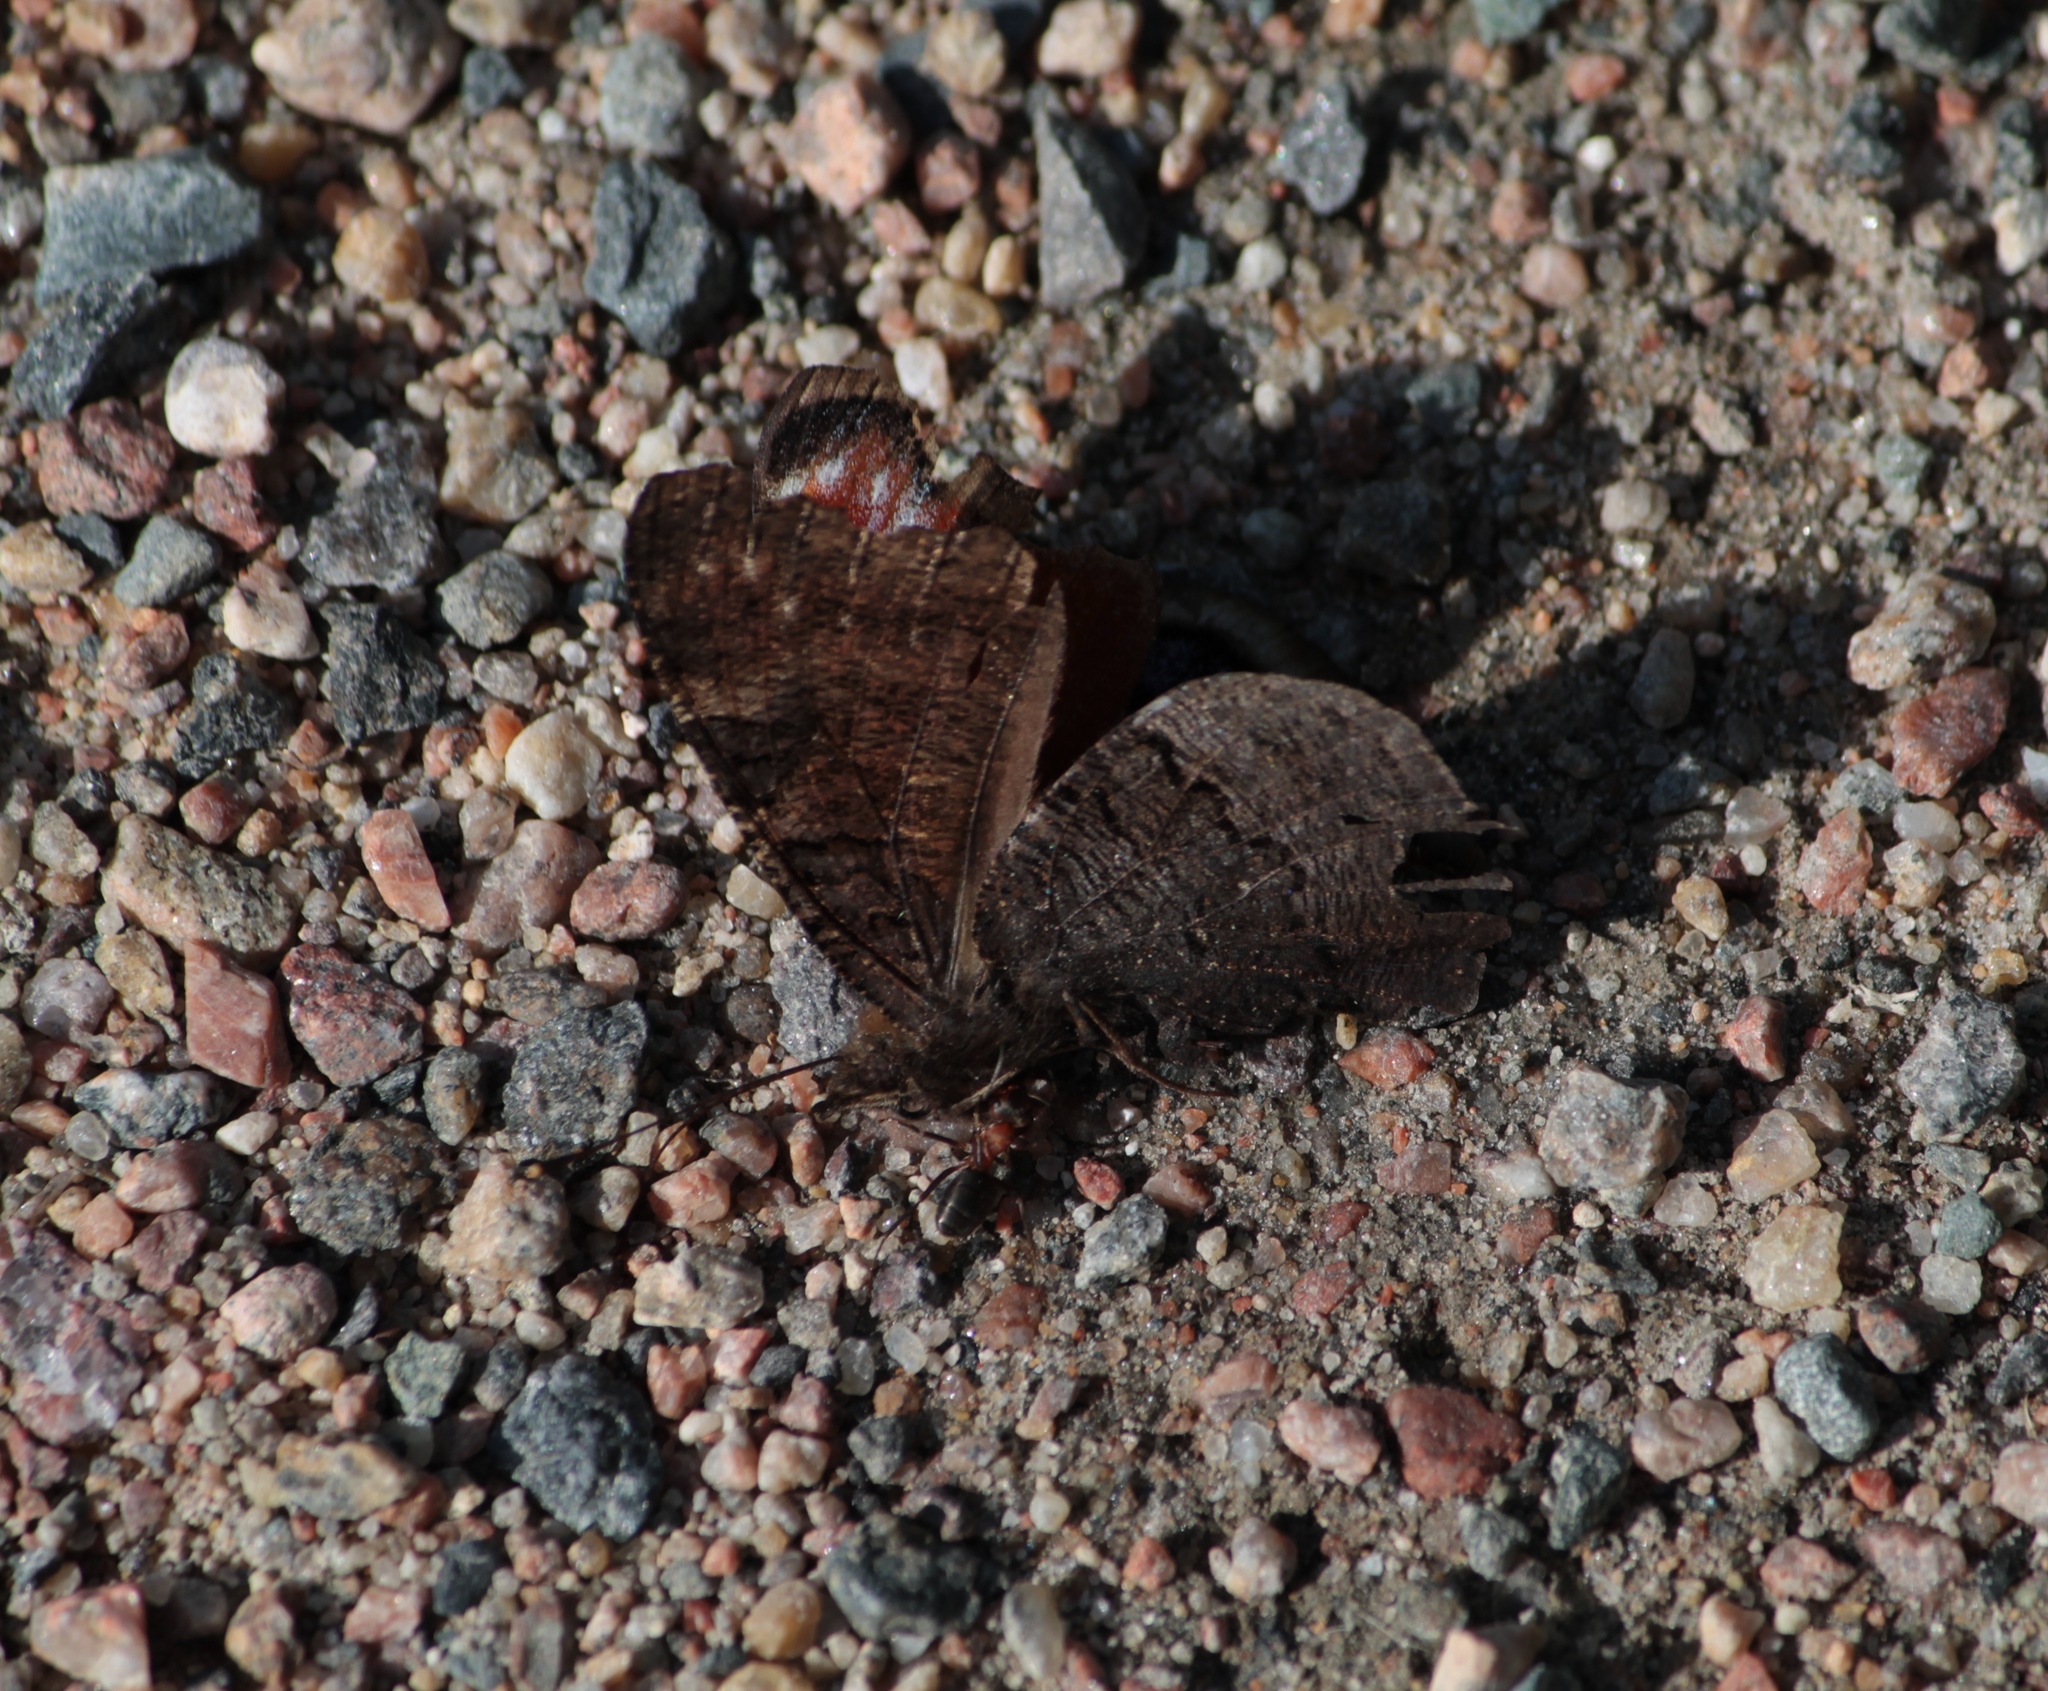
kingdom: Animalia
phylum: Arthropoda
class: Insecta
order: Lepidoptera
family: Nymphalidae
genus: Aglais
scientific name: Aglais io
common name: Peacock
